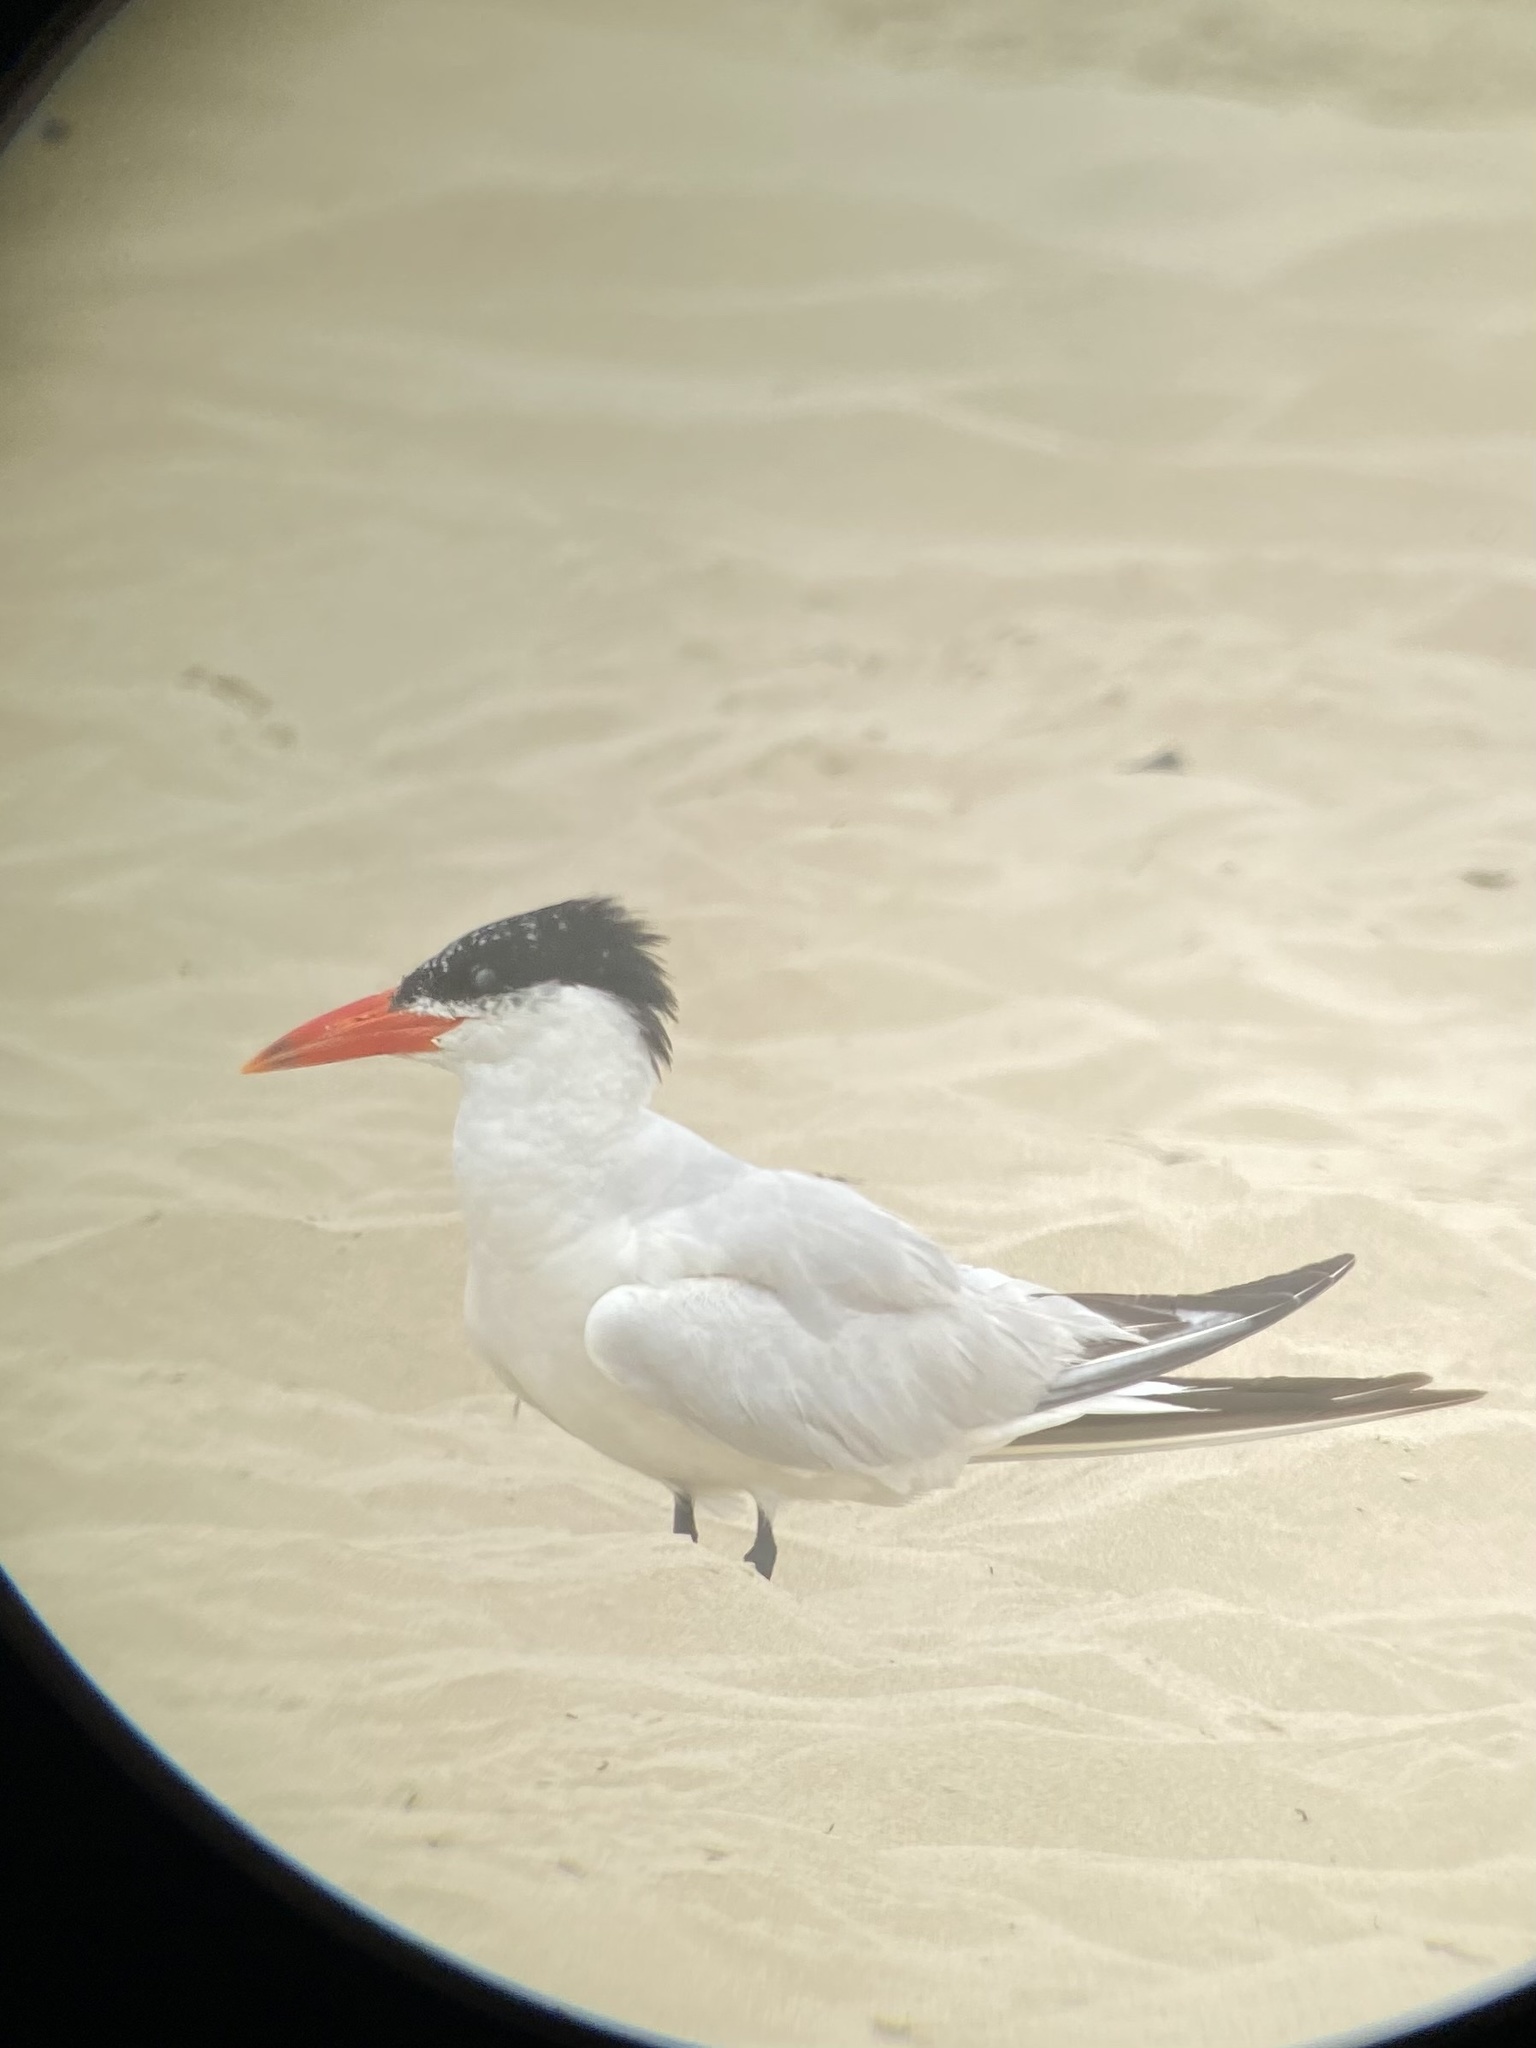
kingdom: Animalia
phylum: Chordata
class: Aves
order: Charadriiformes
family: Laridae
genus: Hydroprogne
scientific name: Hydroprogne caspia
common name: Caspian tern
